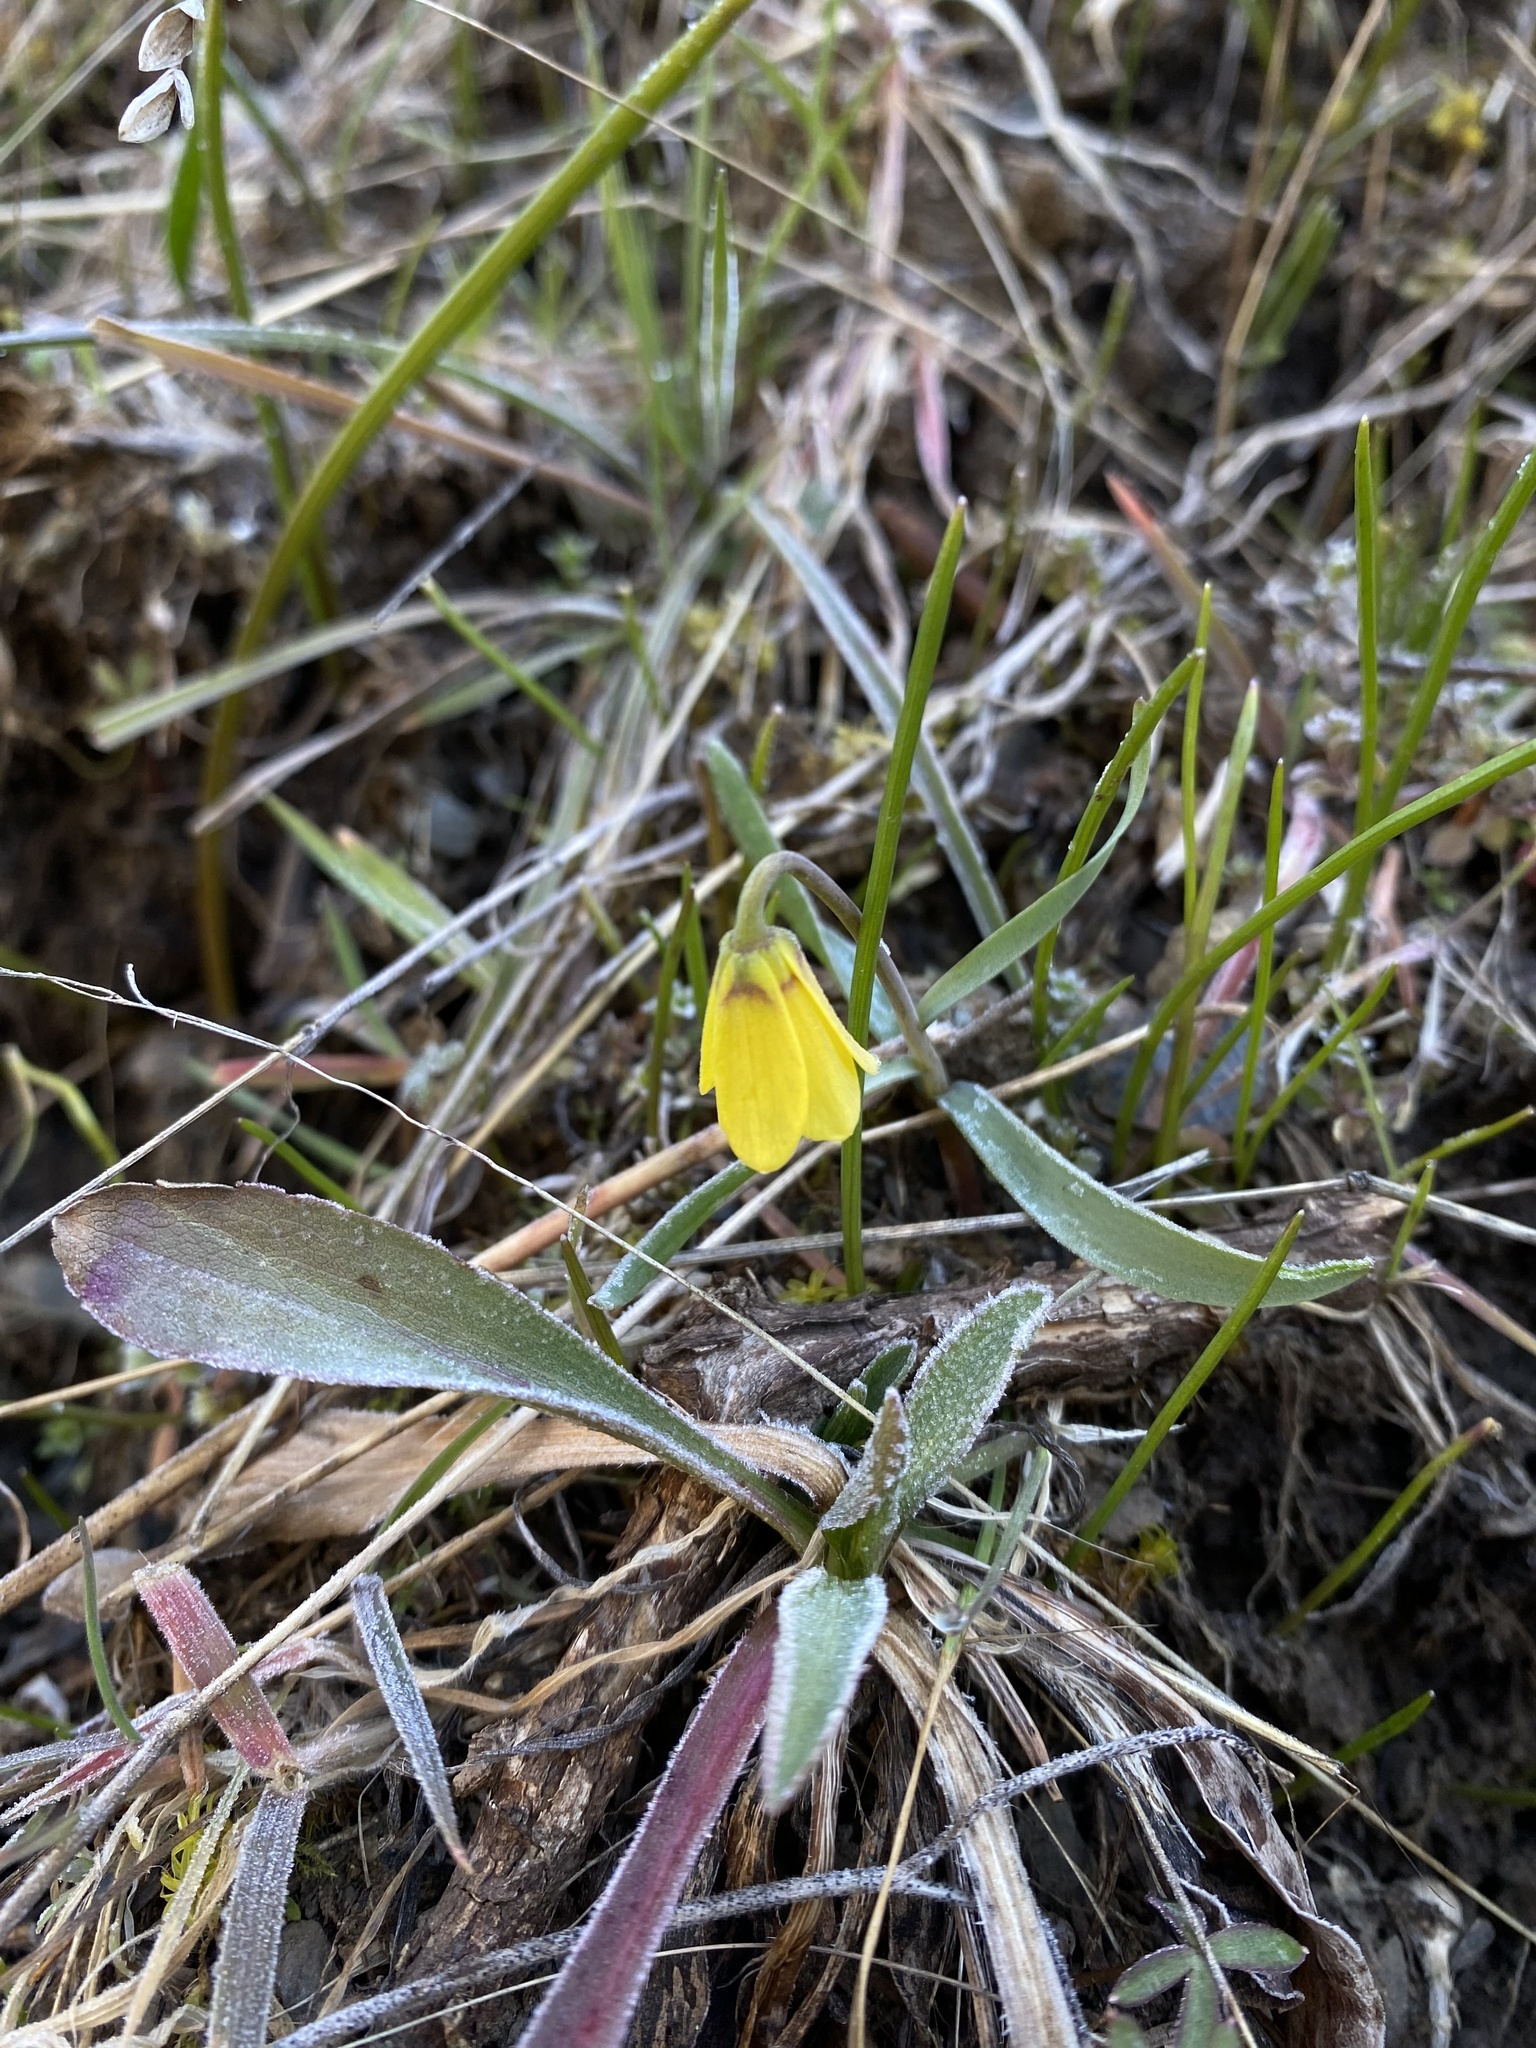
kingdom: Plantae
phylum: Tracheophyta
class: Liliopsida
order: Liliales
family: Liliaceae
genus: Fritillaria
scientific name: Fritillaria pudica
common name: Yellow fritillary
